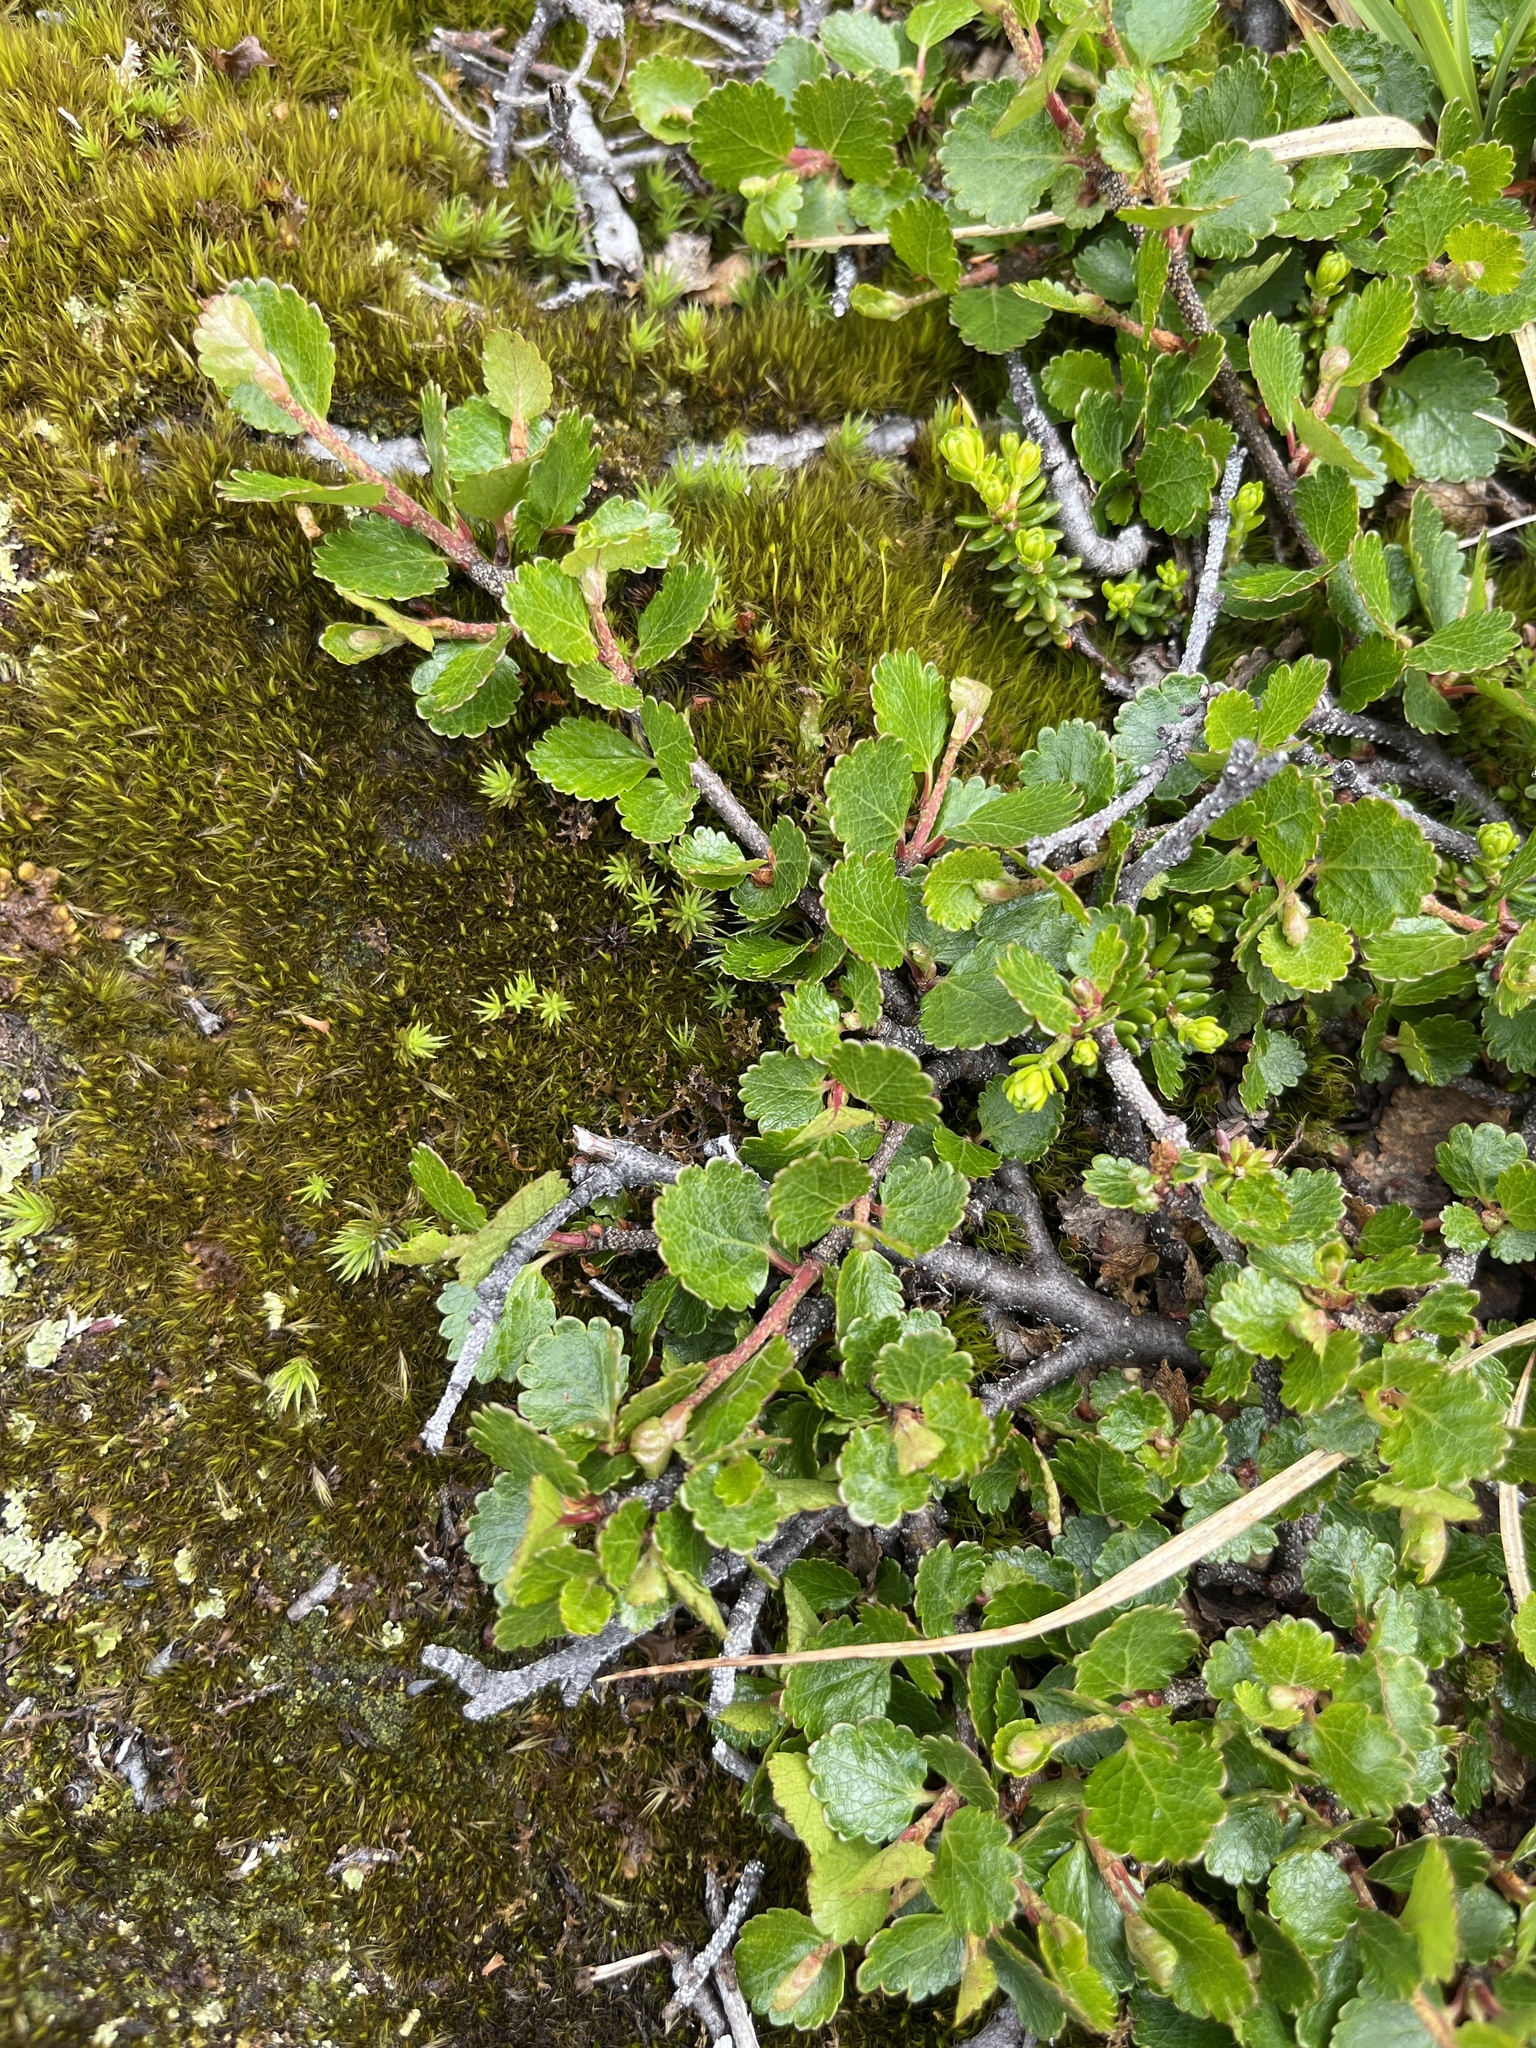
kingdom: Plantae
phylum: Tracheophyta
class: Magnoliopsida
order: Fagales
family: Betulaceae
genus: Betula
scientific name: Betula glandulosa
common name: Dwarf birch
